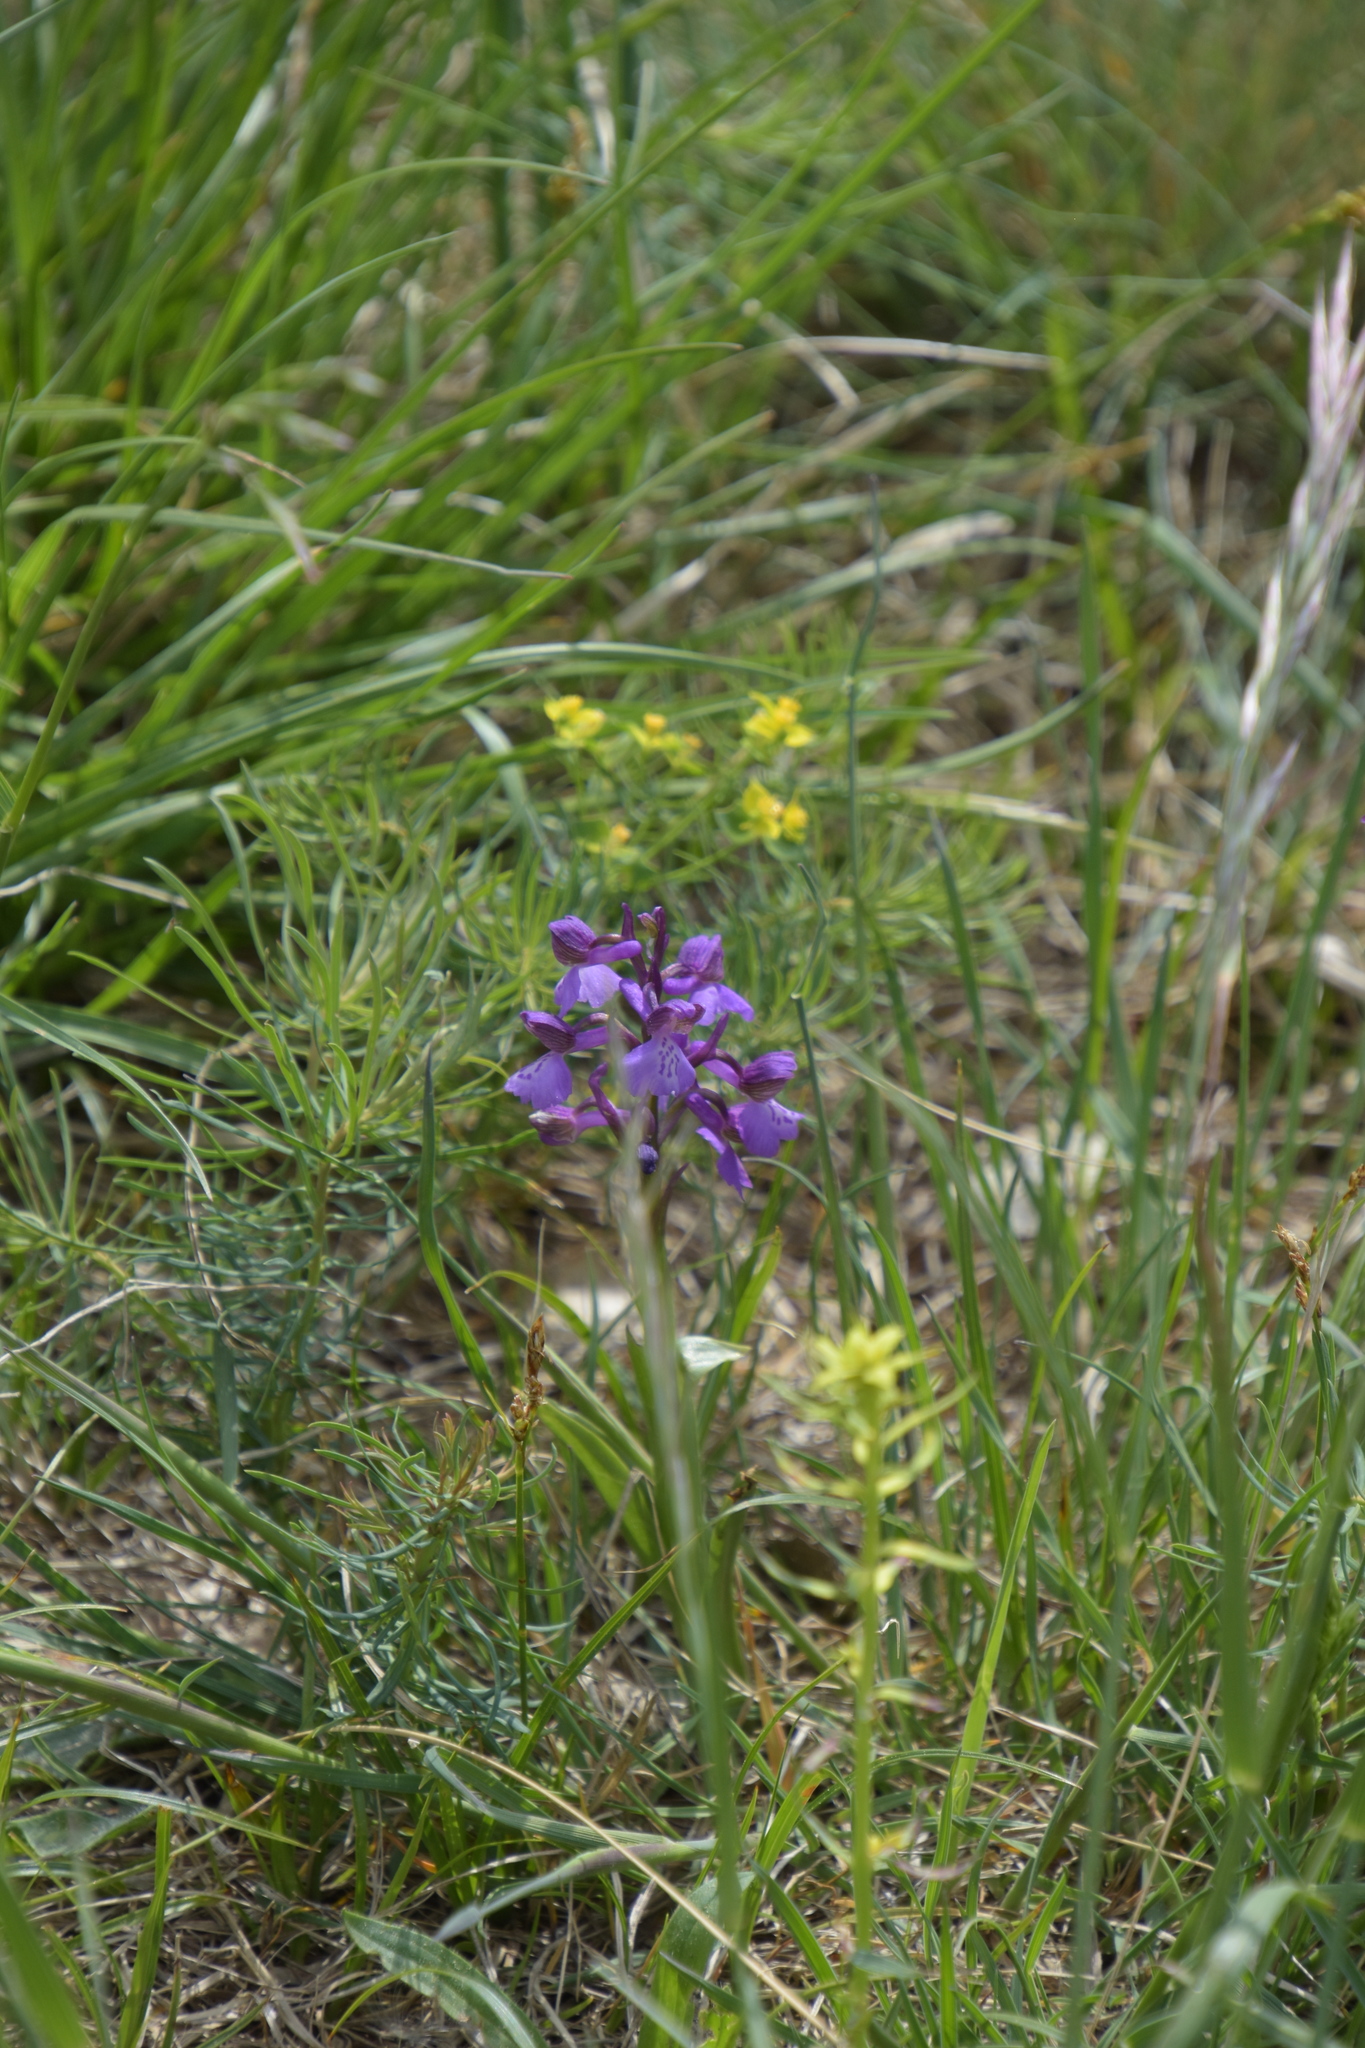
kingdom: Plantae
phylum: Tracheophyta
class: Liliopsida
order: Asparagales
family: Orchidaceae
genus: Anacamptis
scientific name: Anacamptis morio
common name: Green-winged orchid
